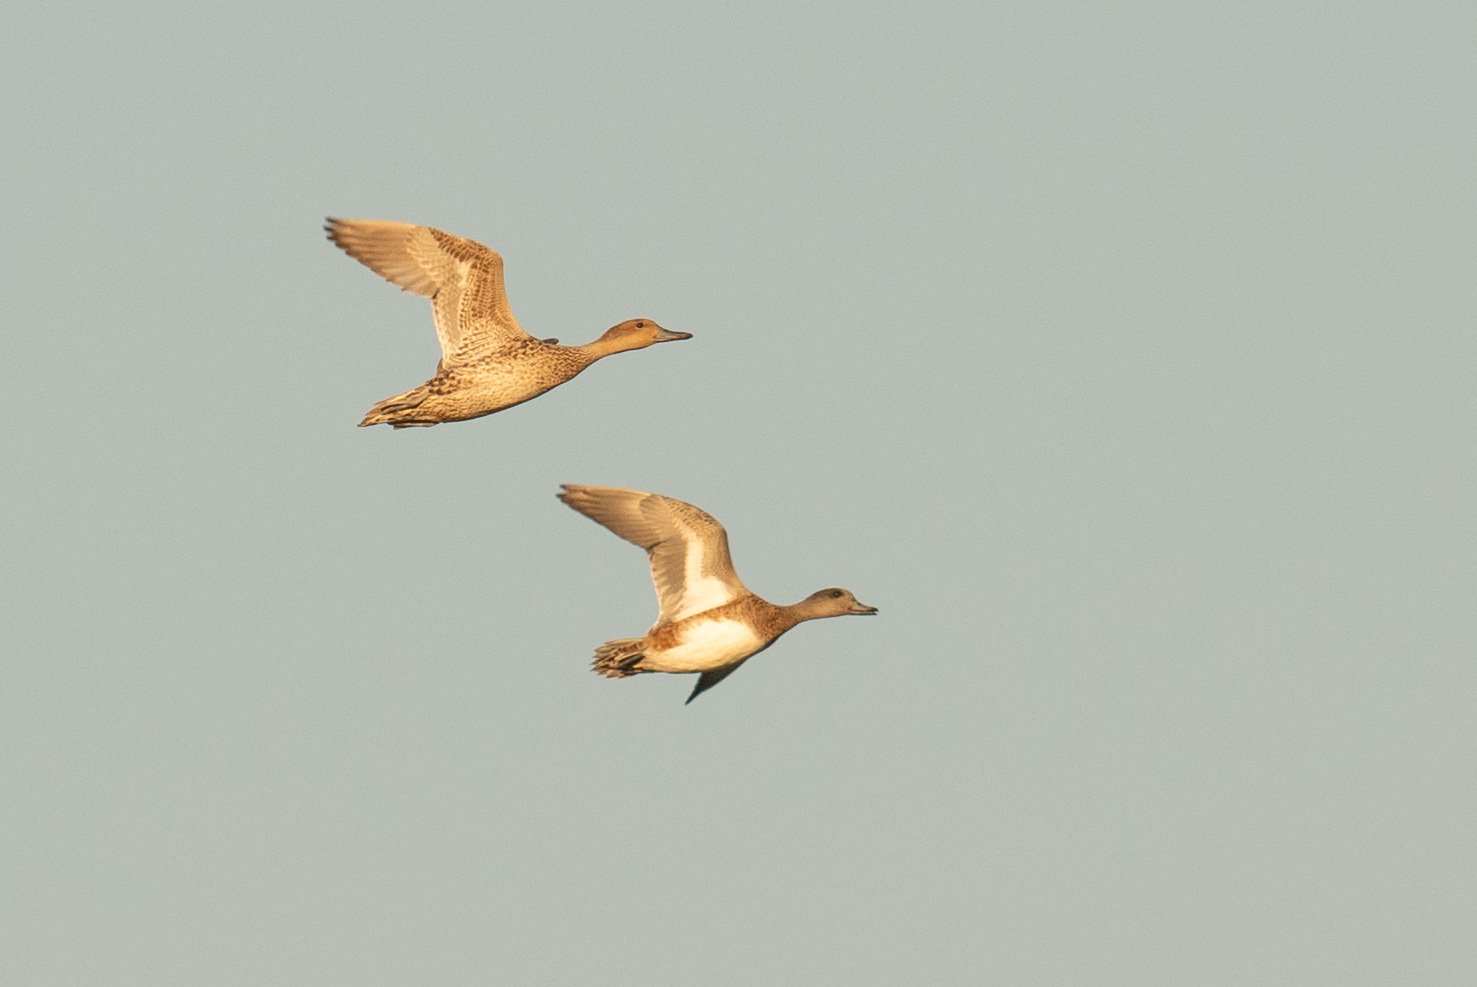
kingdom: Animalia
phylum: Chordata
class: Aves
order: Anseriformes
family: Anatidae
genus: Mareca
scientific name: Mareca americana
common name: American wigeon
